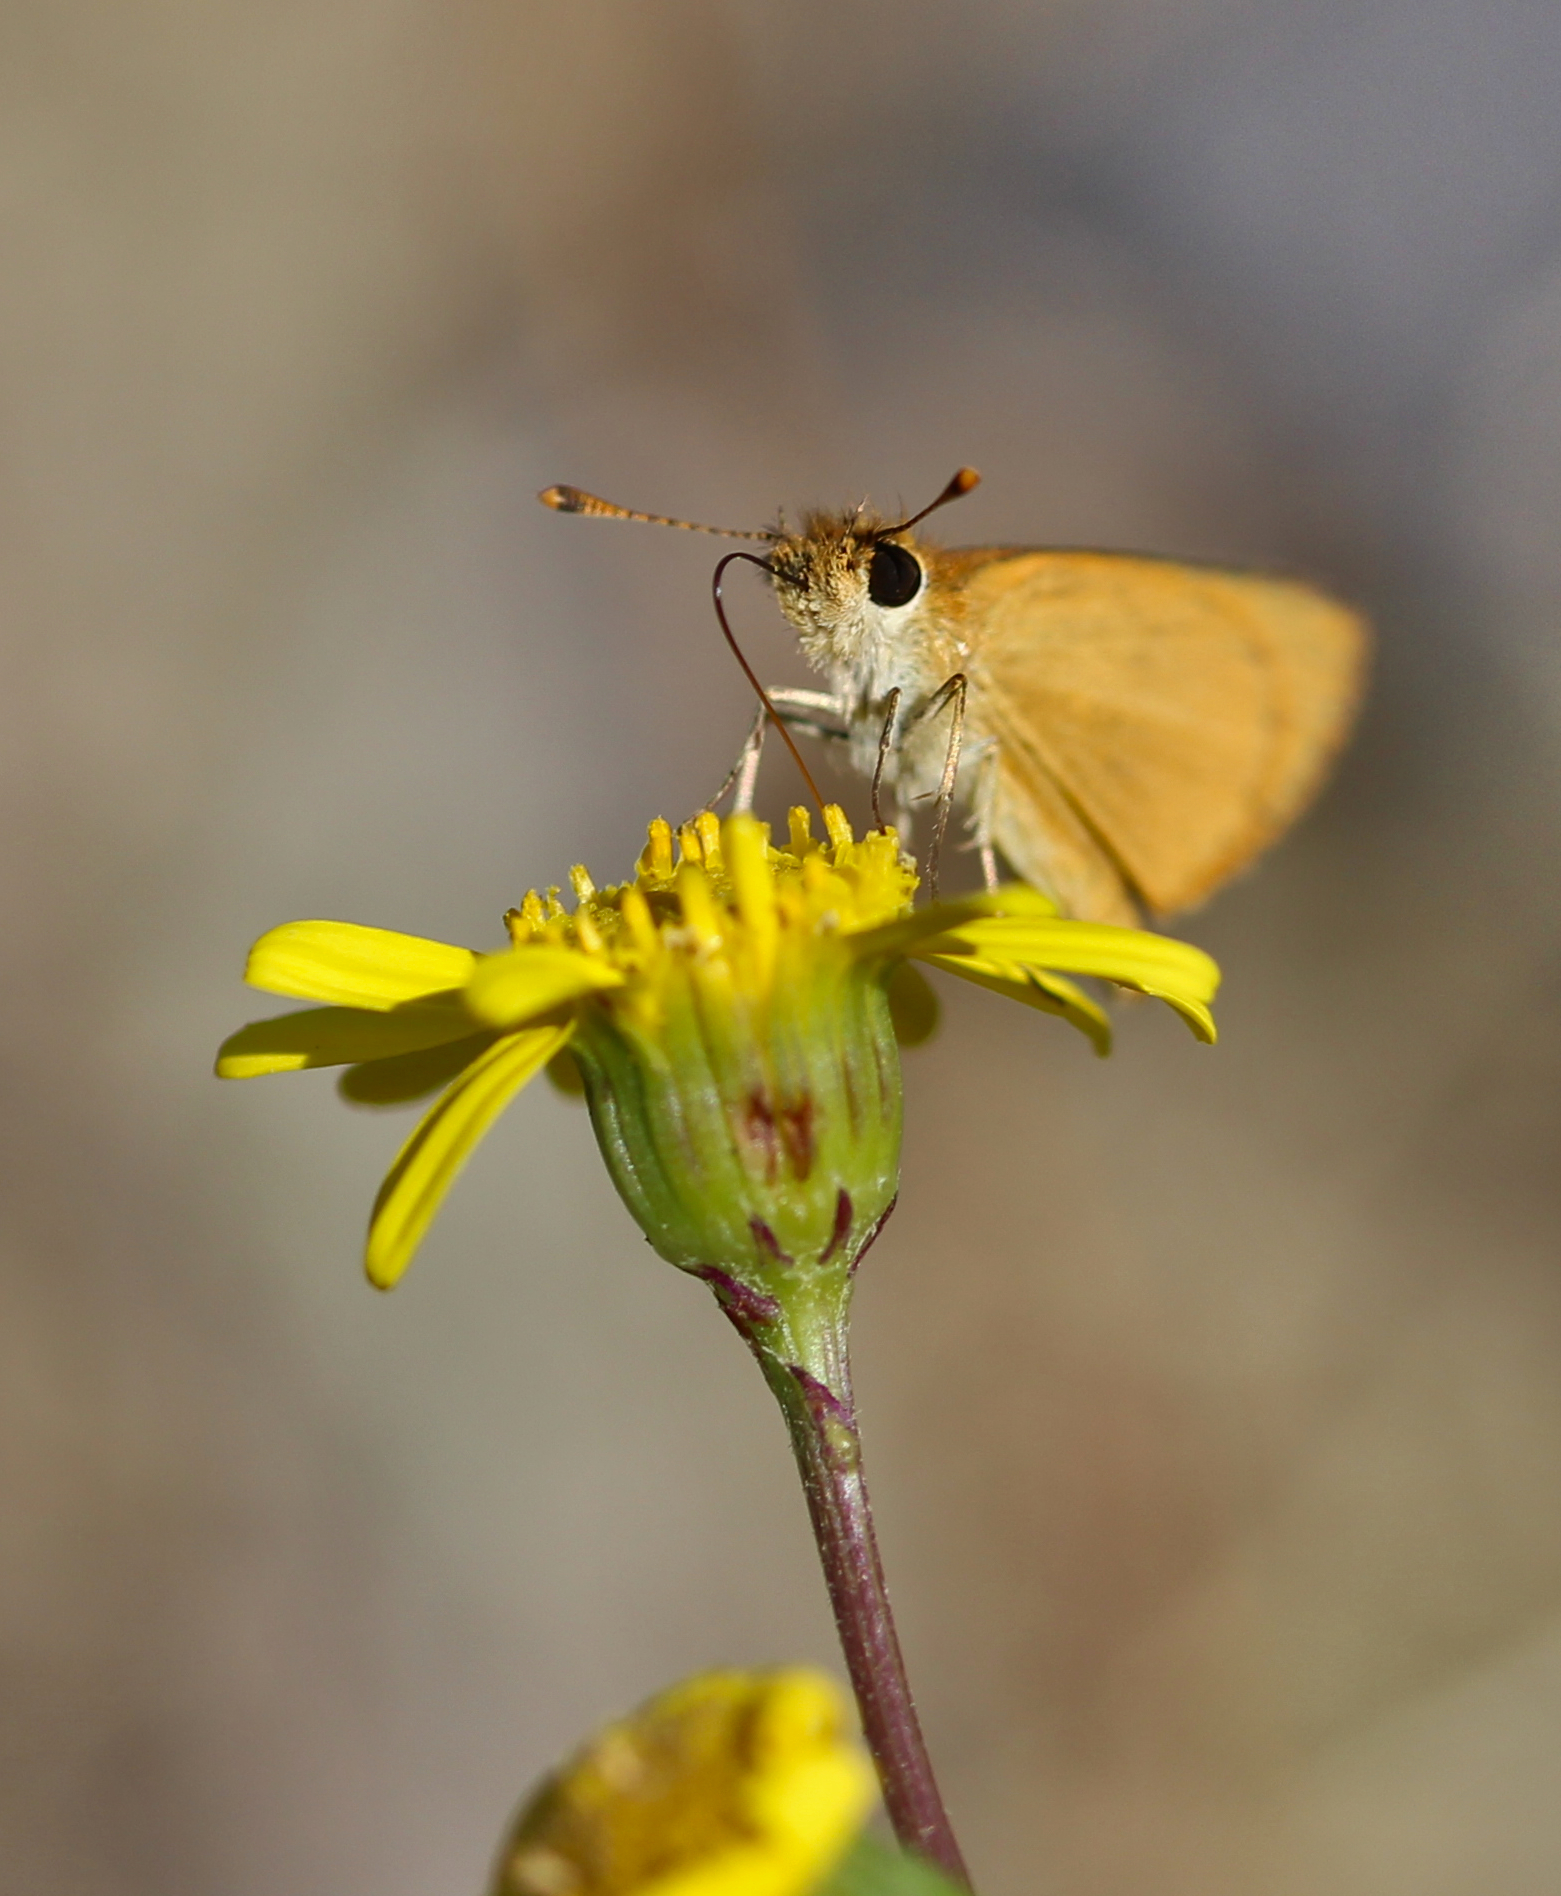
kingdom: Animalia
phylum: Arthropoda
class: Insecta
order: Lepidoptera
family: Hesperiidae
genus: Ancyloxypha
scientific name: Ancyloxypha arene
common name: Tropical least skipper
